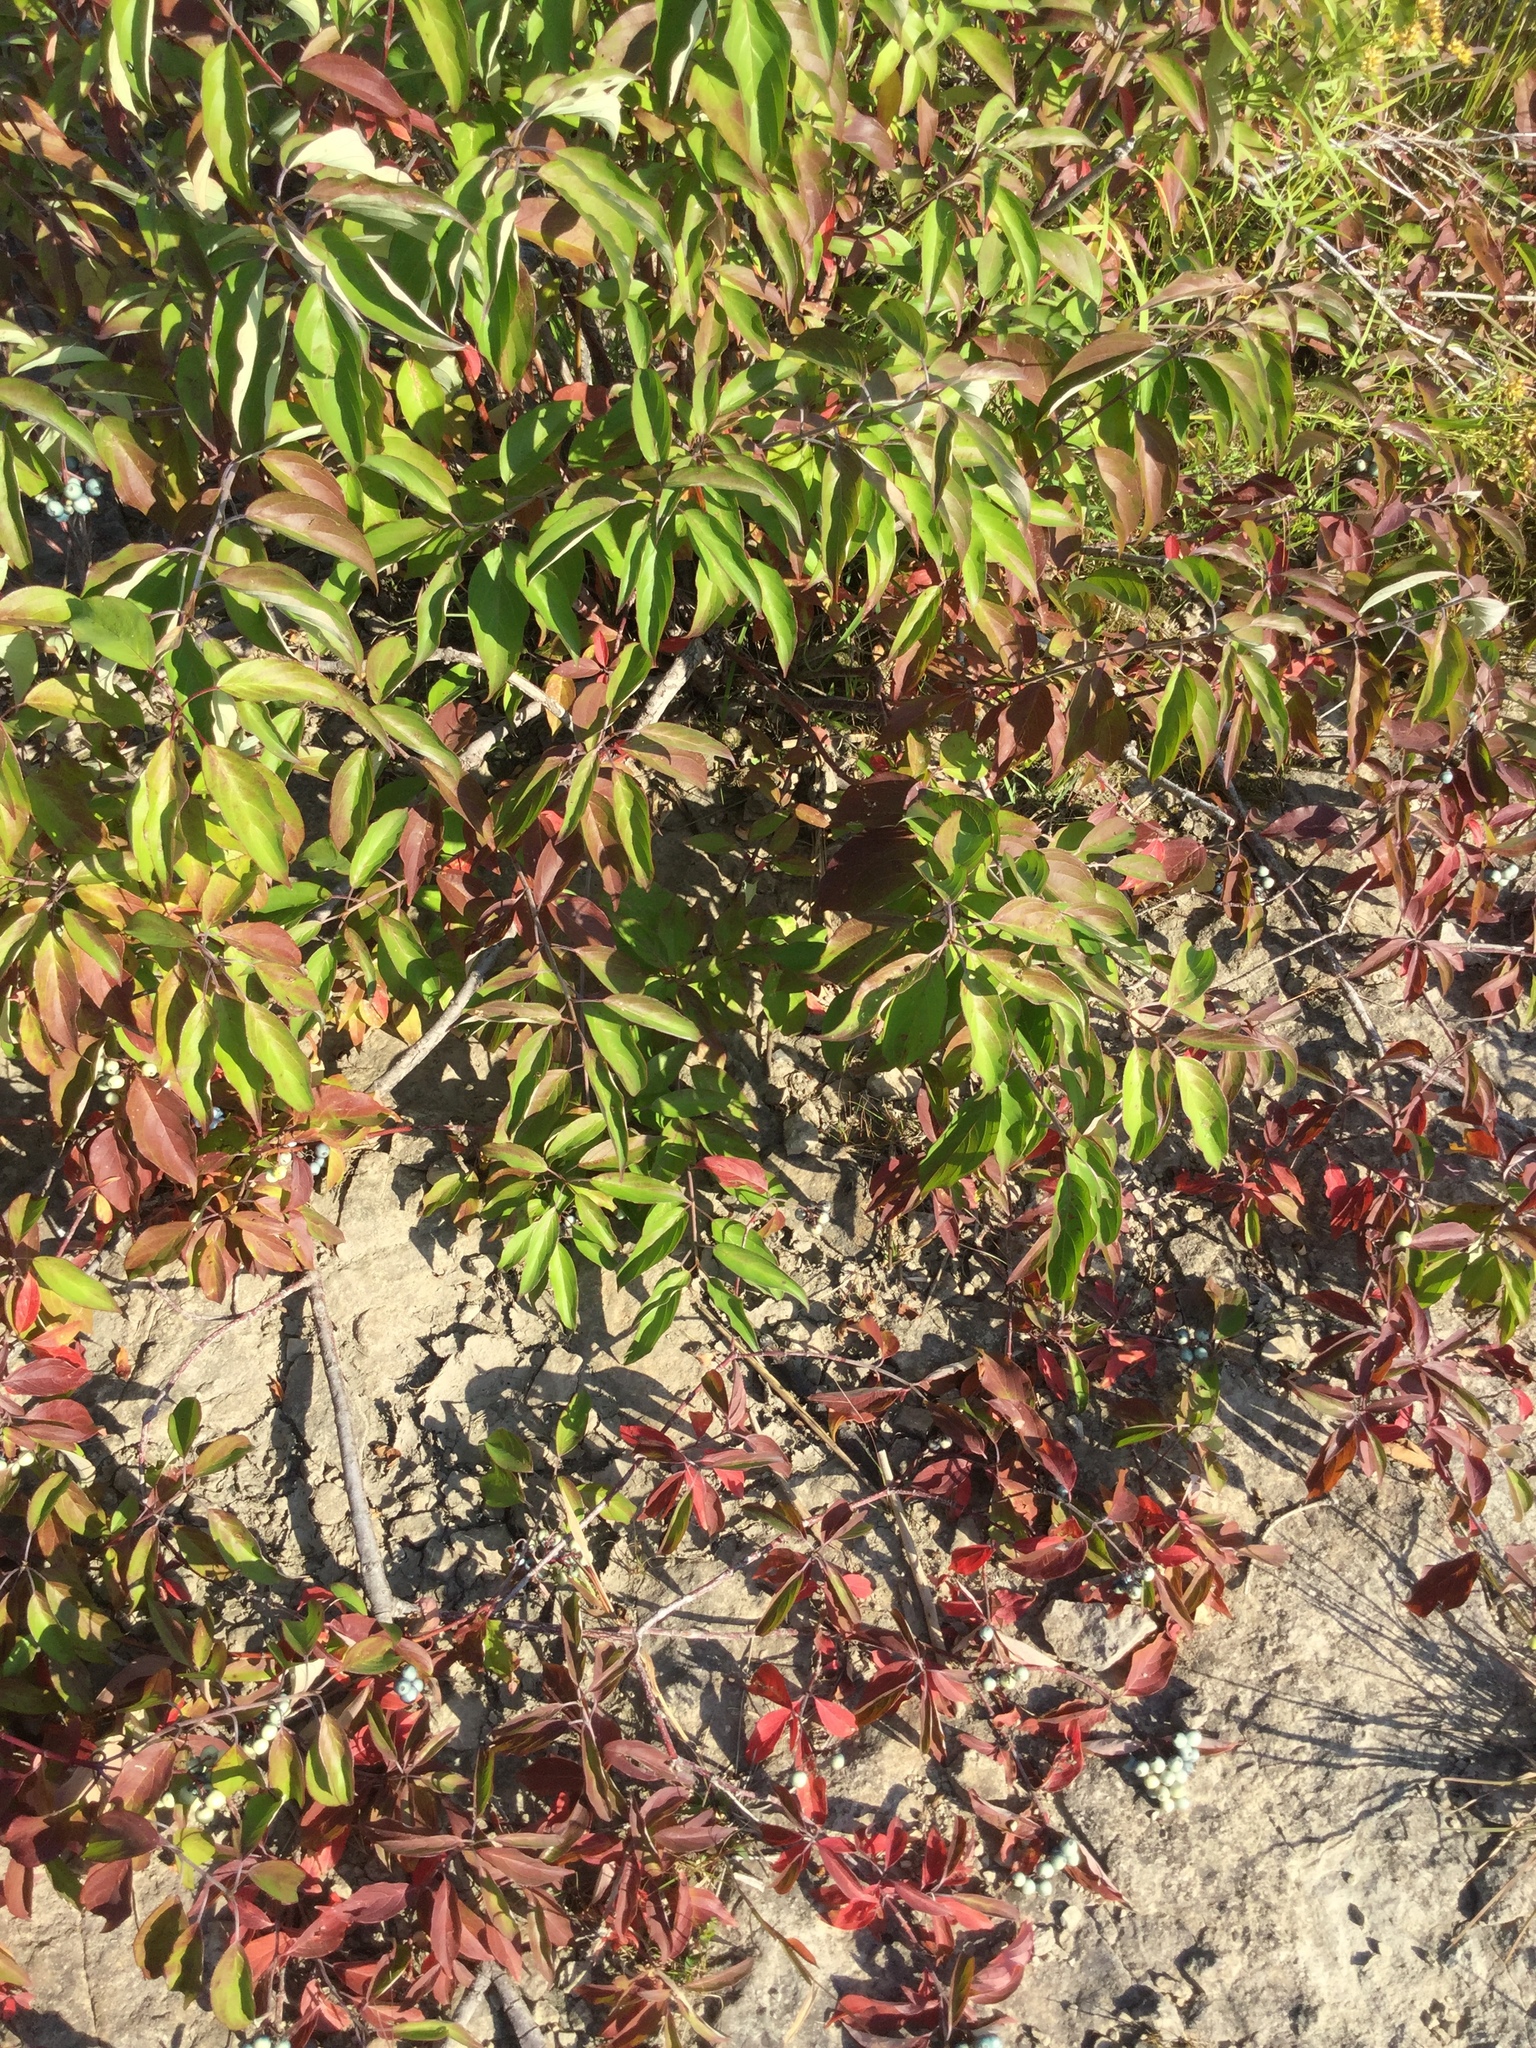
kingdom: Plantae
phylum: Tracheophyta
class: Magnoliopsida
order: Cornales
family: Cornaceae
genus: Cornus
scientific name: Cornus amomum
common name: Silky dogwood
